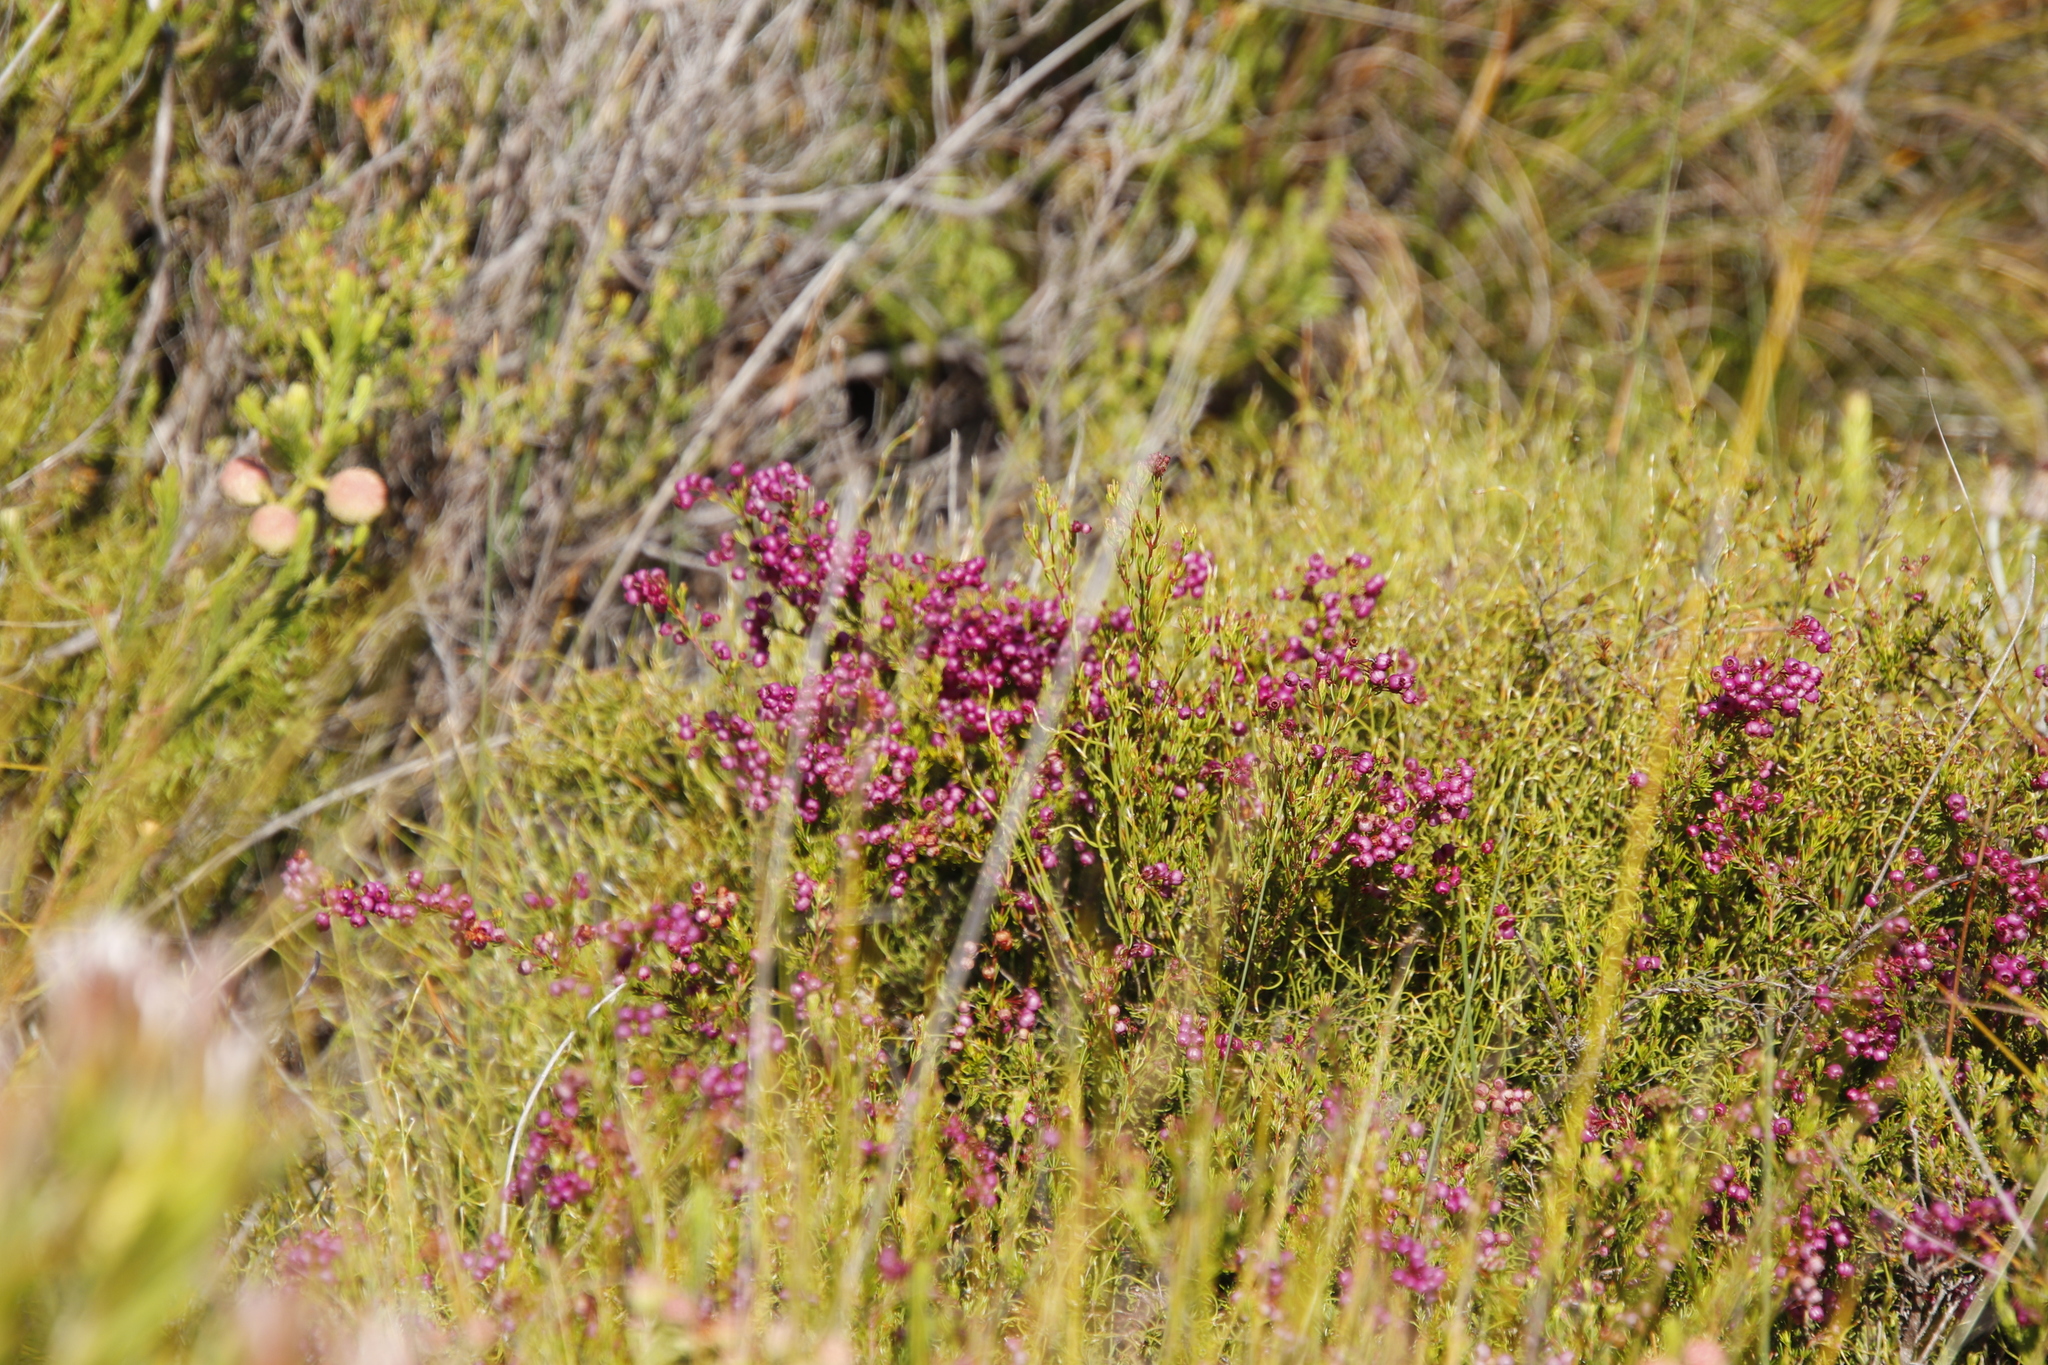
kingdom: Plantae
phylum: Tracheophyta
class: Magnoliopsida
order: Ericales
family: Ericaceae
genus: Erica
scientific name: Erica multumbellifera
